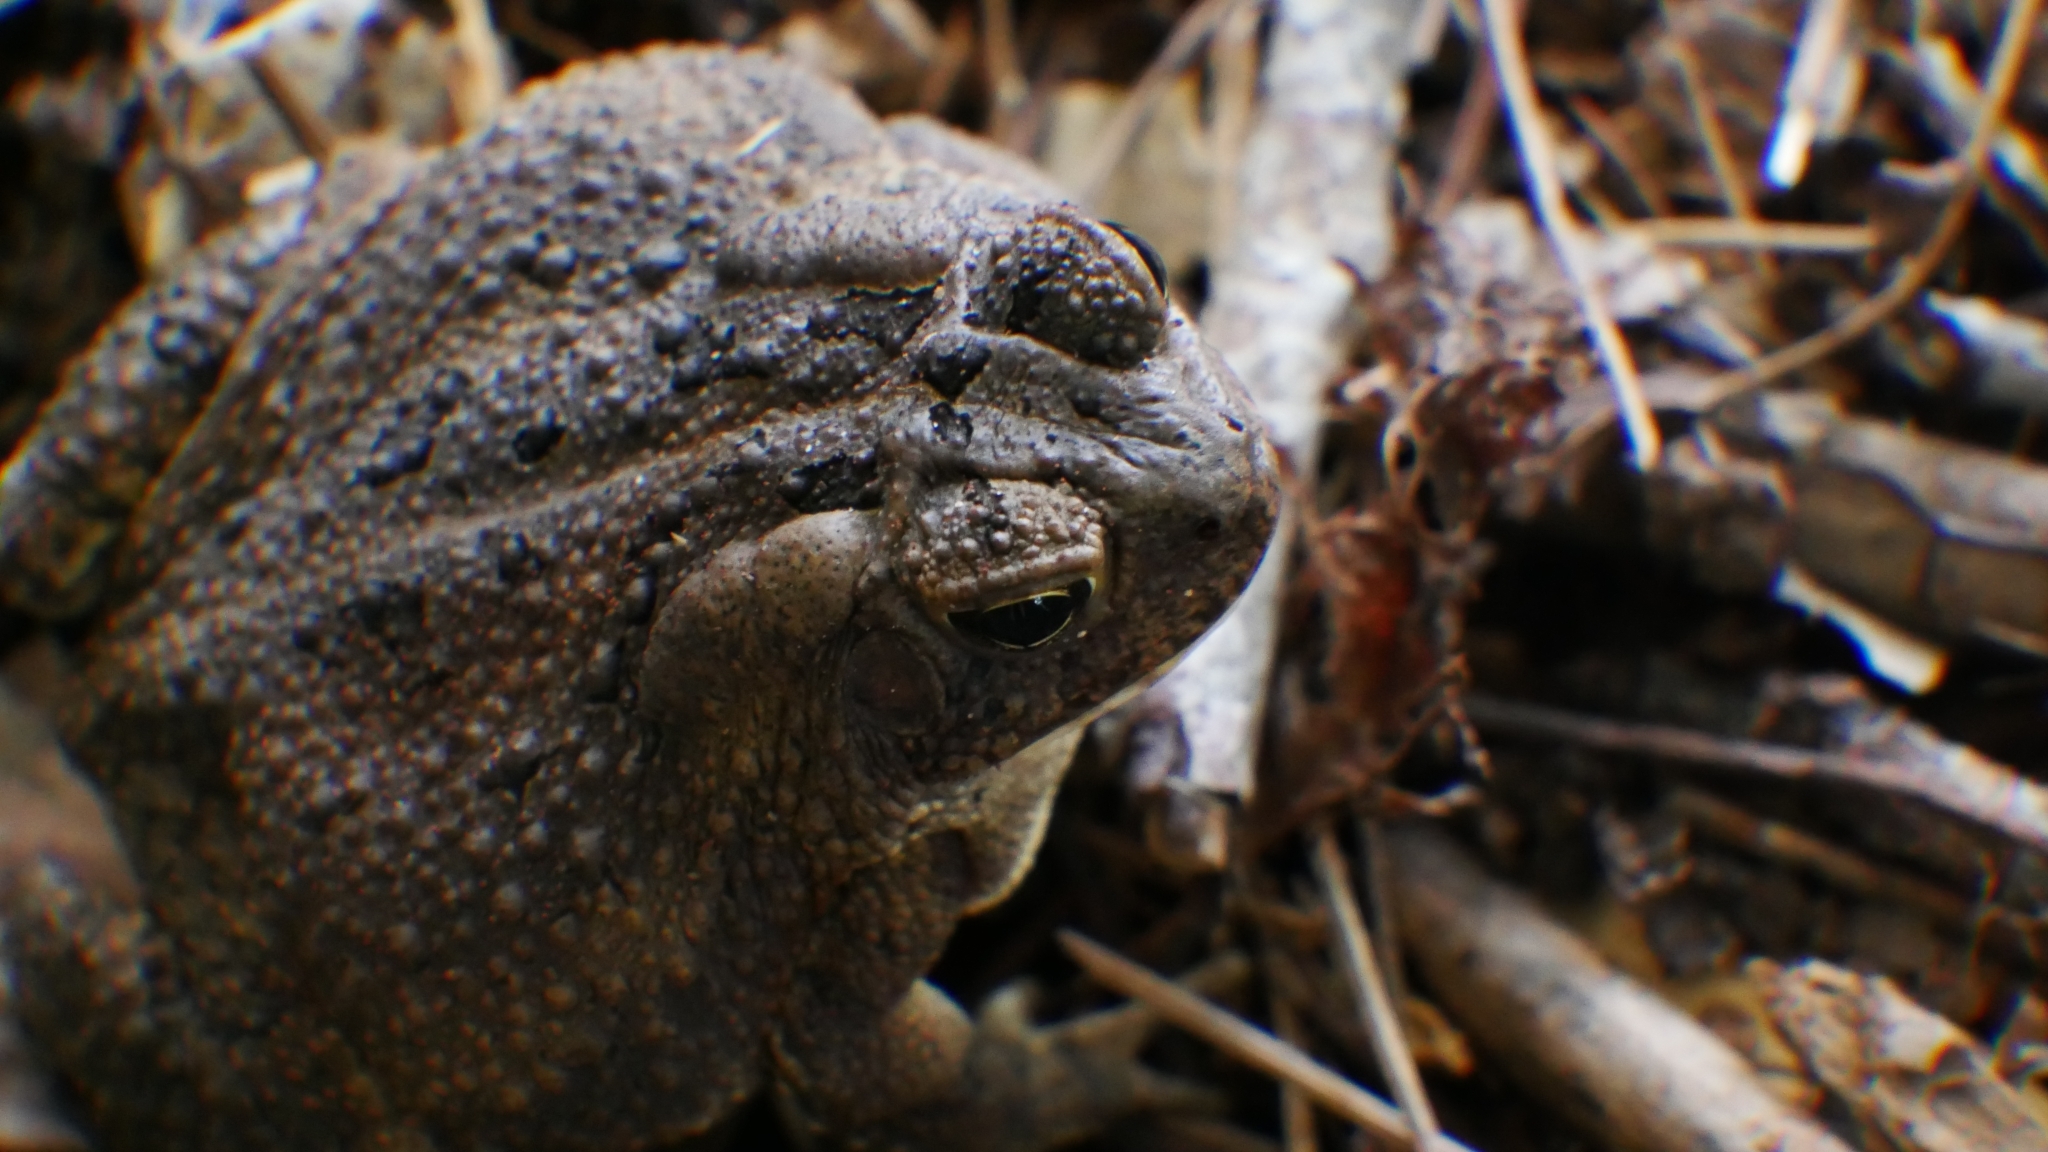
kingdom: Animalia
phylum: Chordata
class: Amphibia
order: Anura
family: Bufonidae
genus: Anaxyrus
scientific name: Anaxyrus fowleri
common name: Fowler's toad
